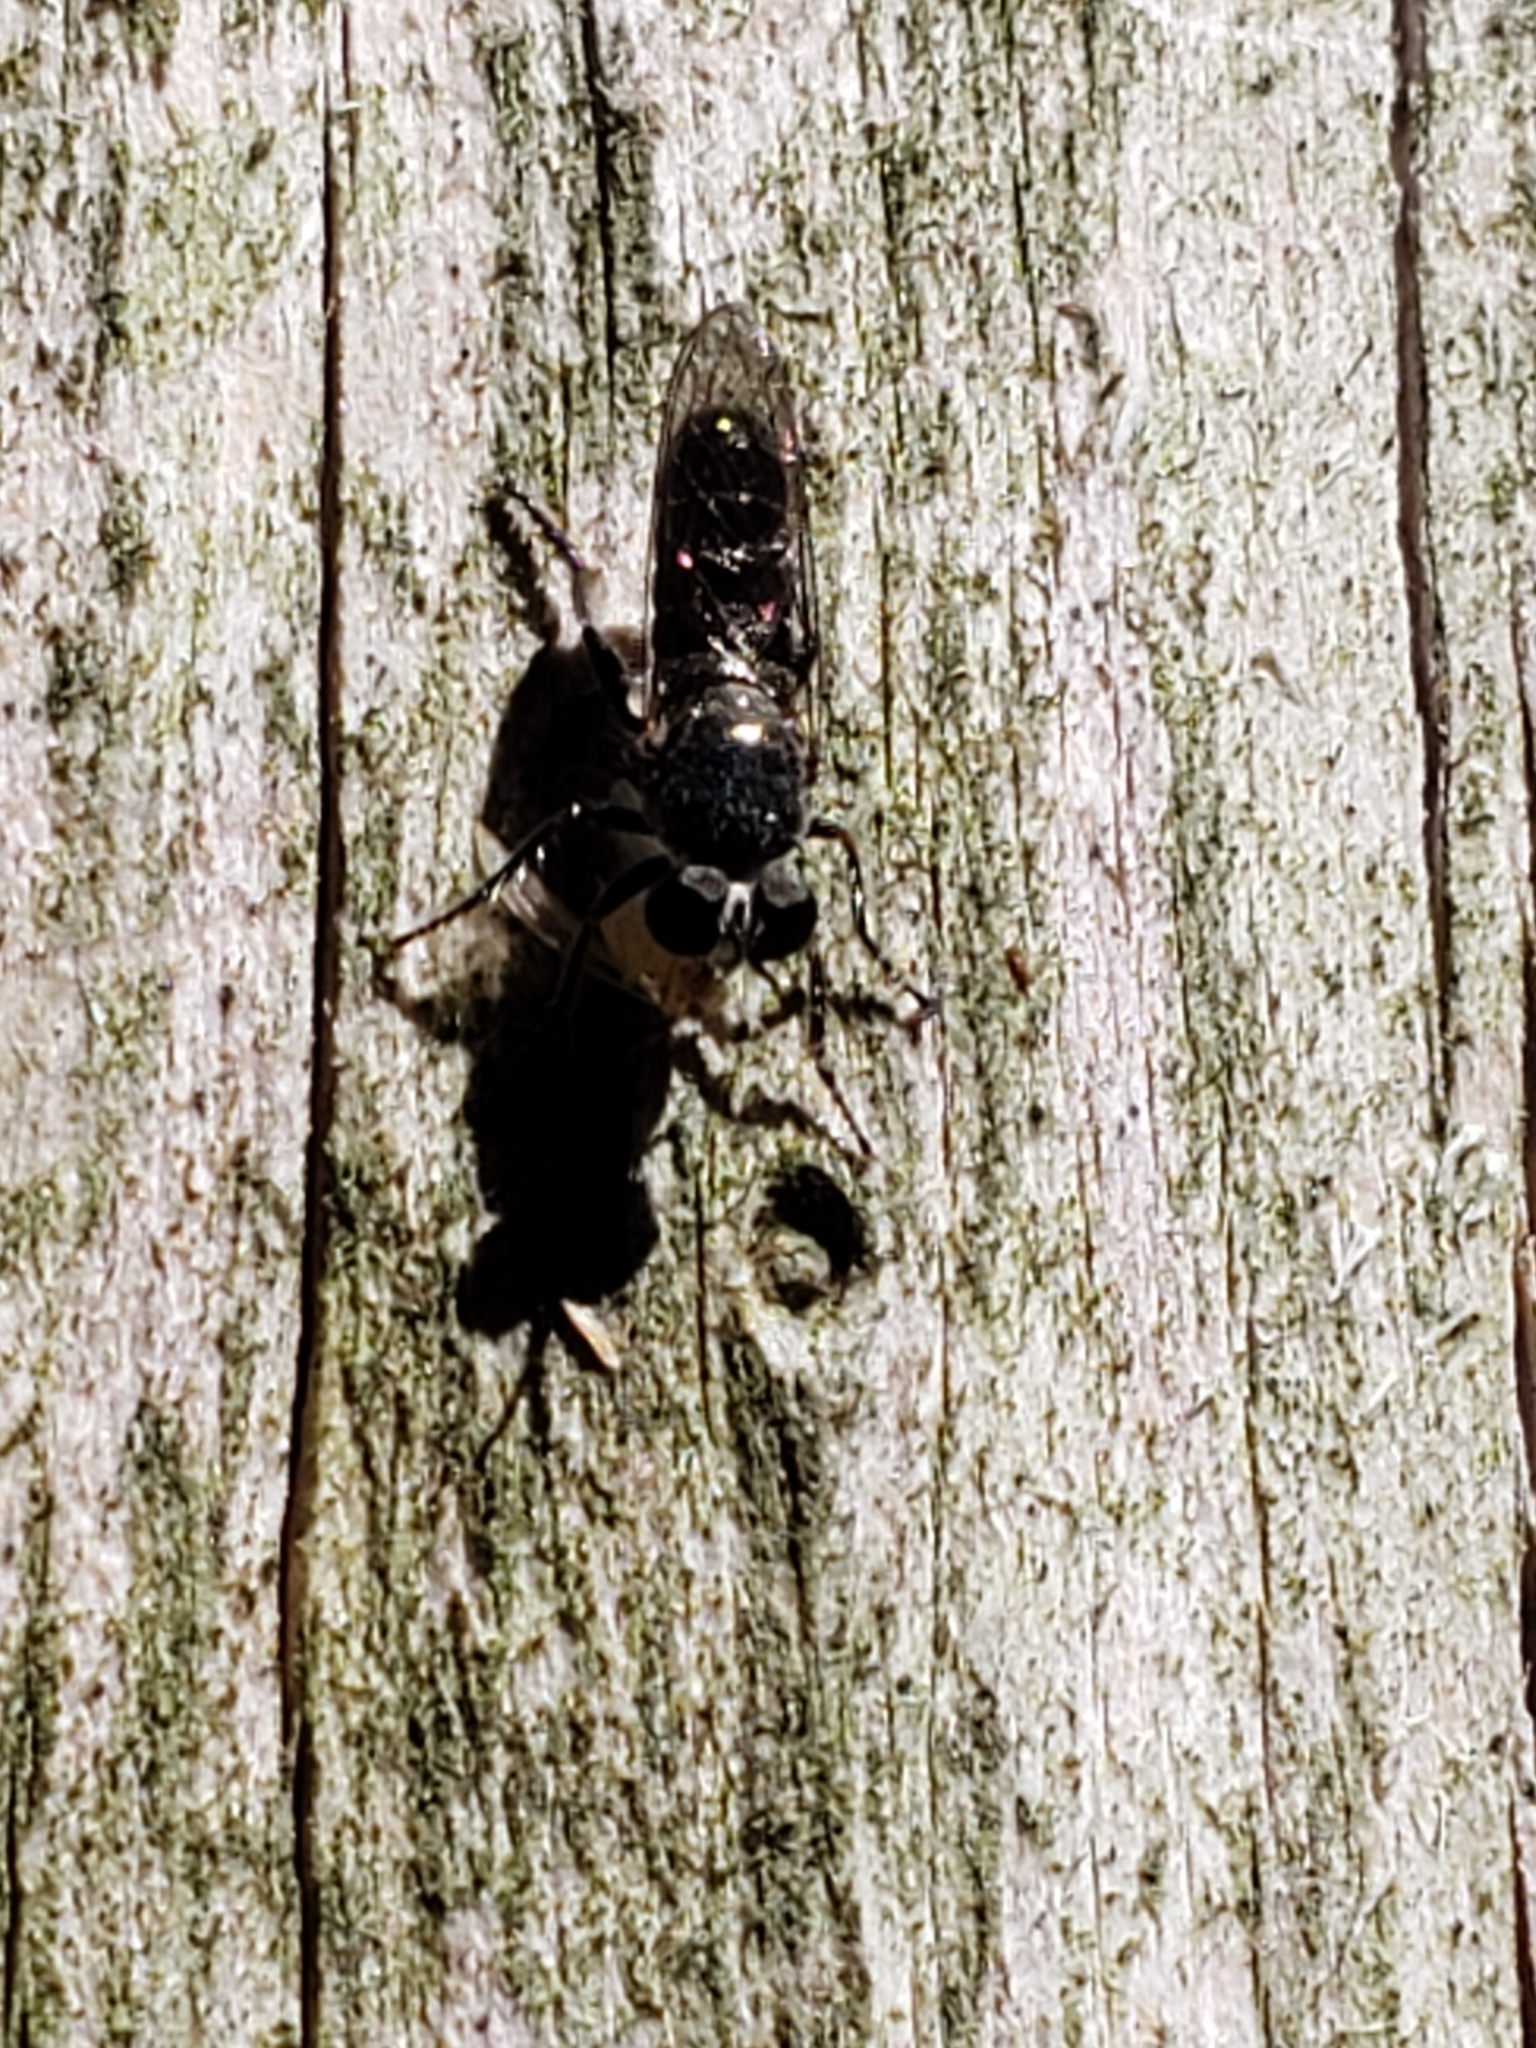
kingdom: Animalia
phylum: Arthropoda
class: Insecta
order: Diptera
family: Asilidae
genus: Atomosia
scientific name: Atomosia puella
